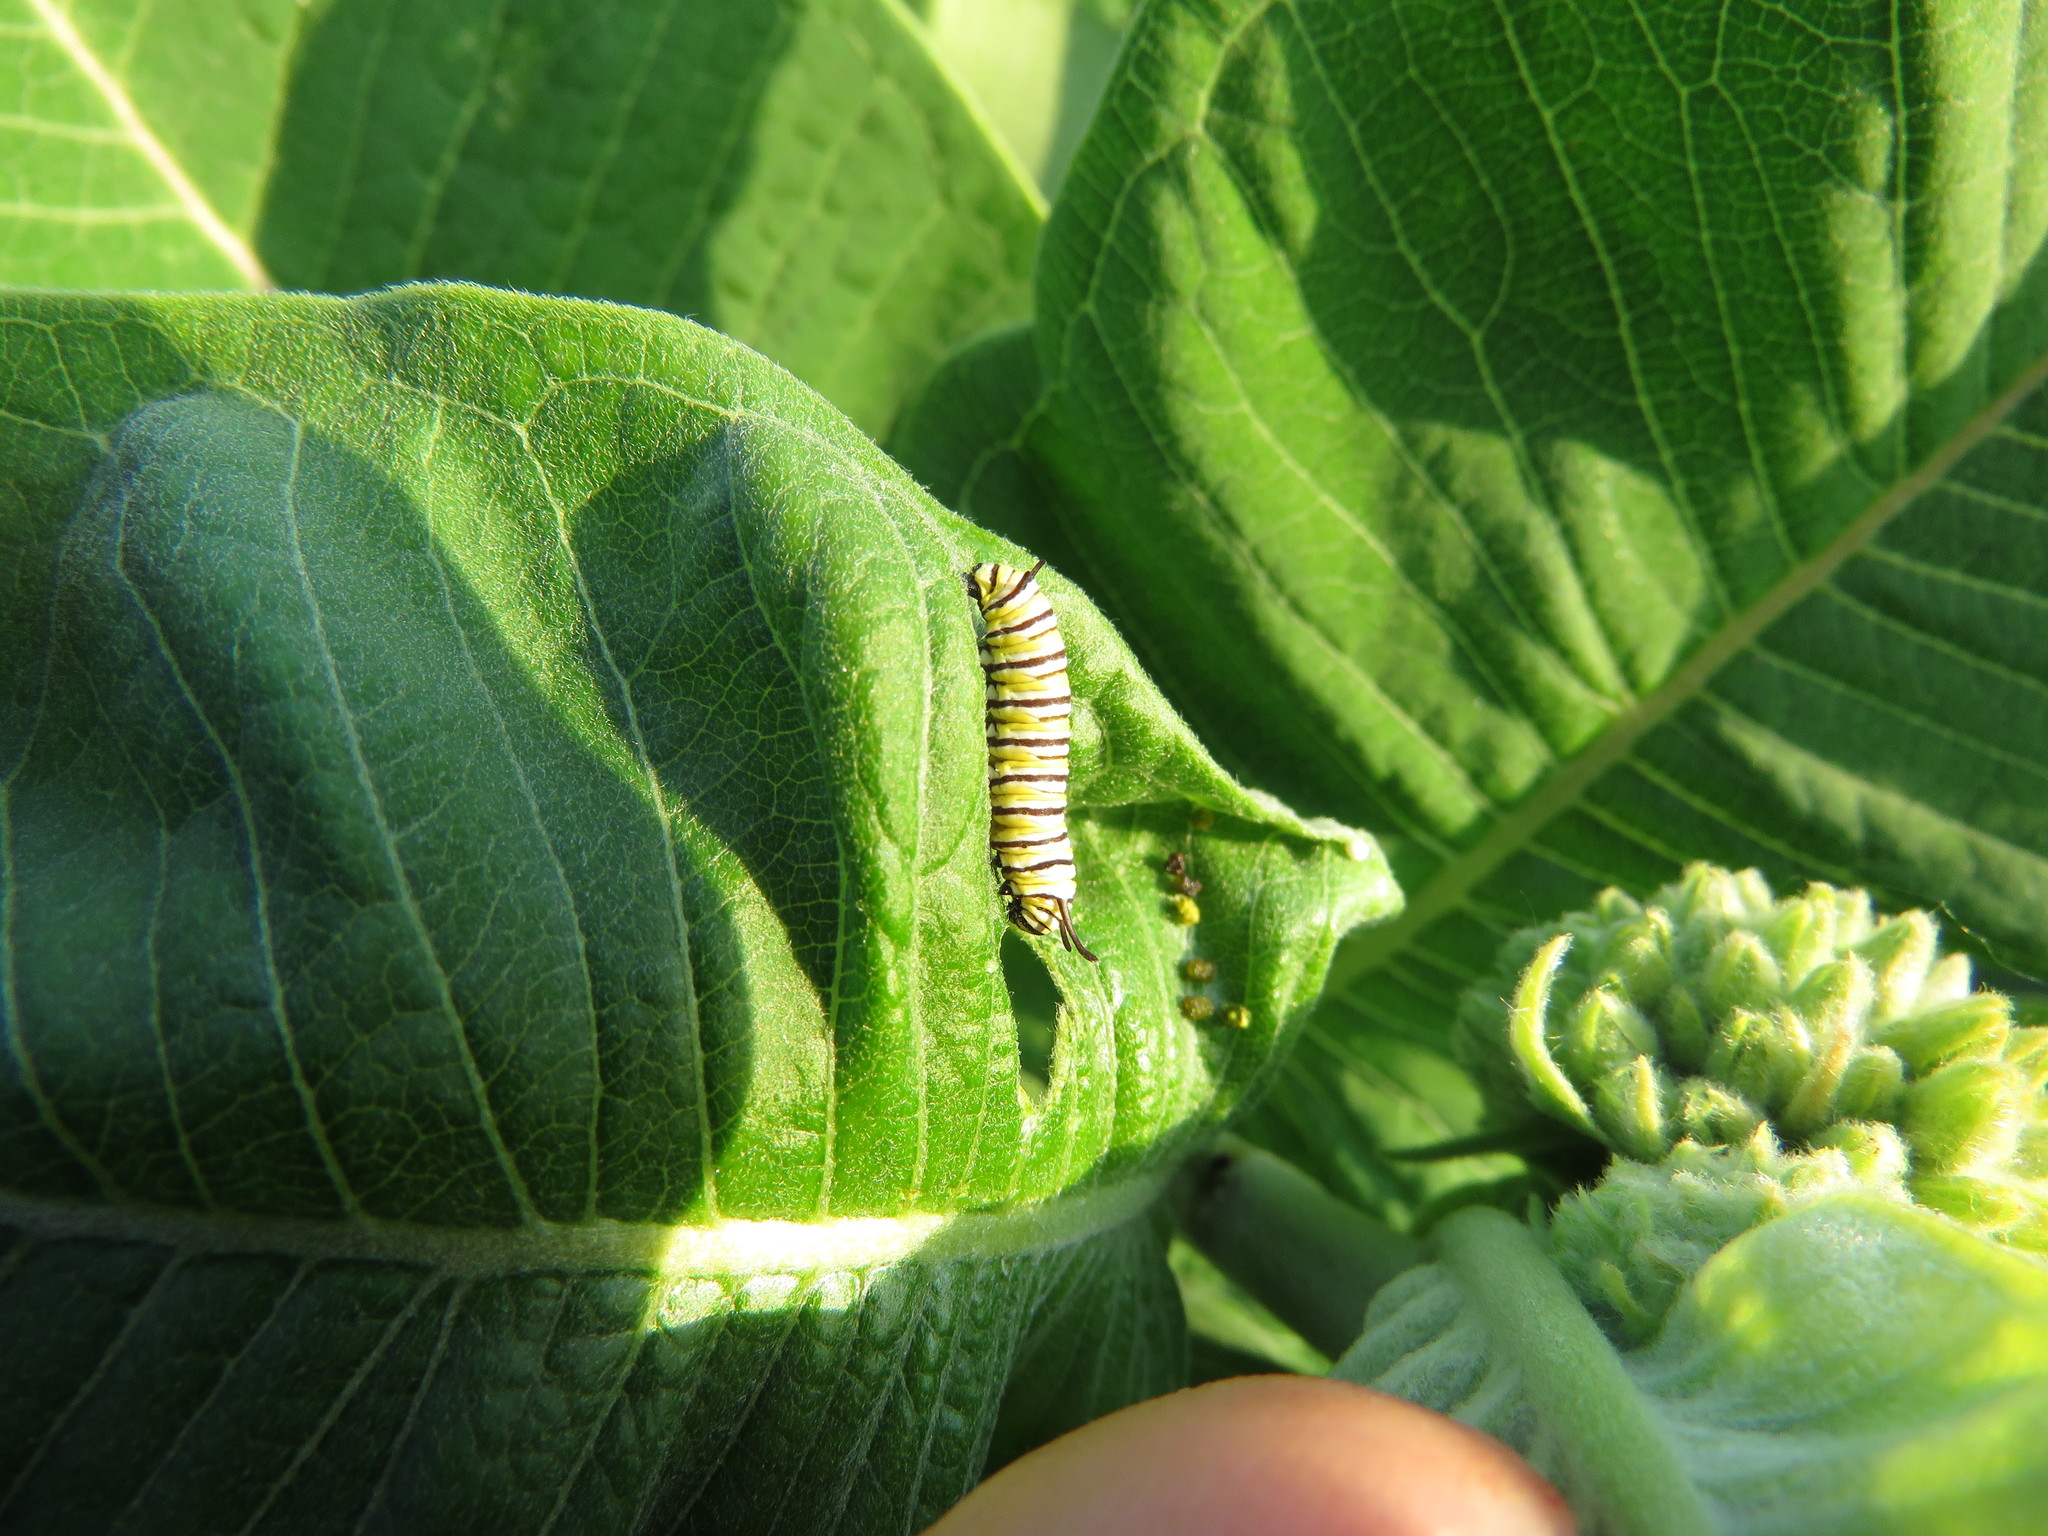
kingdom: Animalia
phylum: Arthropoda
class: Insecta
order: Lepidoptera
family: Nymphalidae
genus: Danaus
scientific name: Danaus plexippus
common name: Monarch
